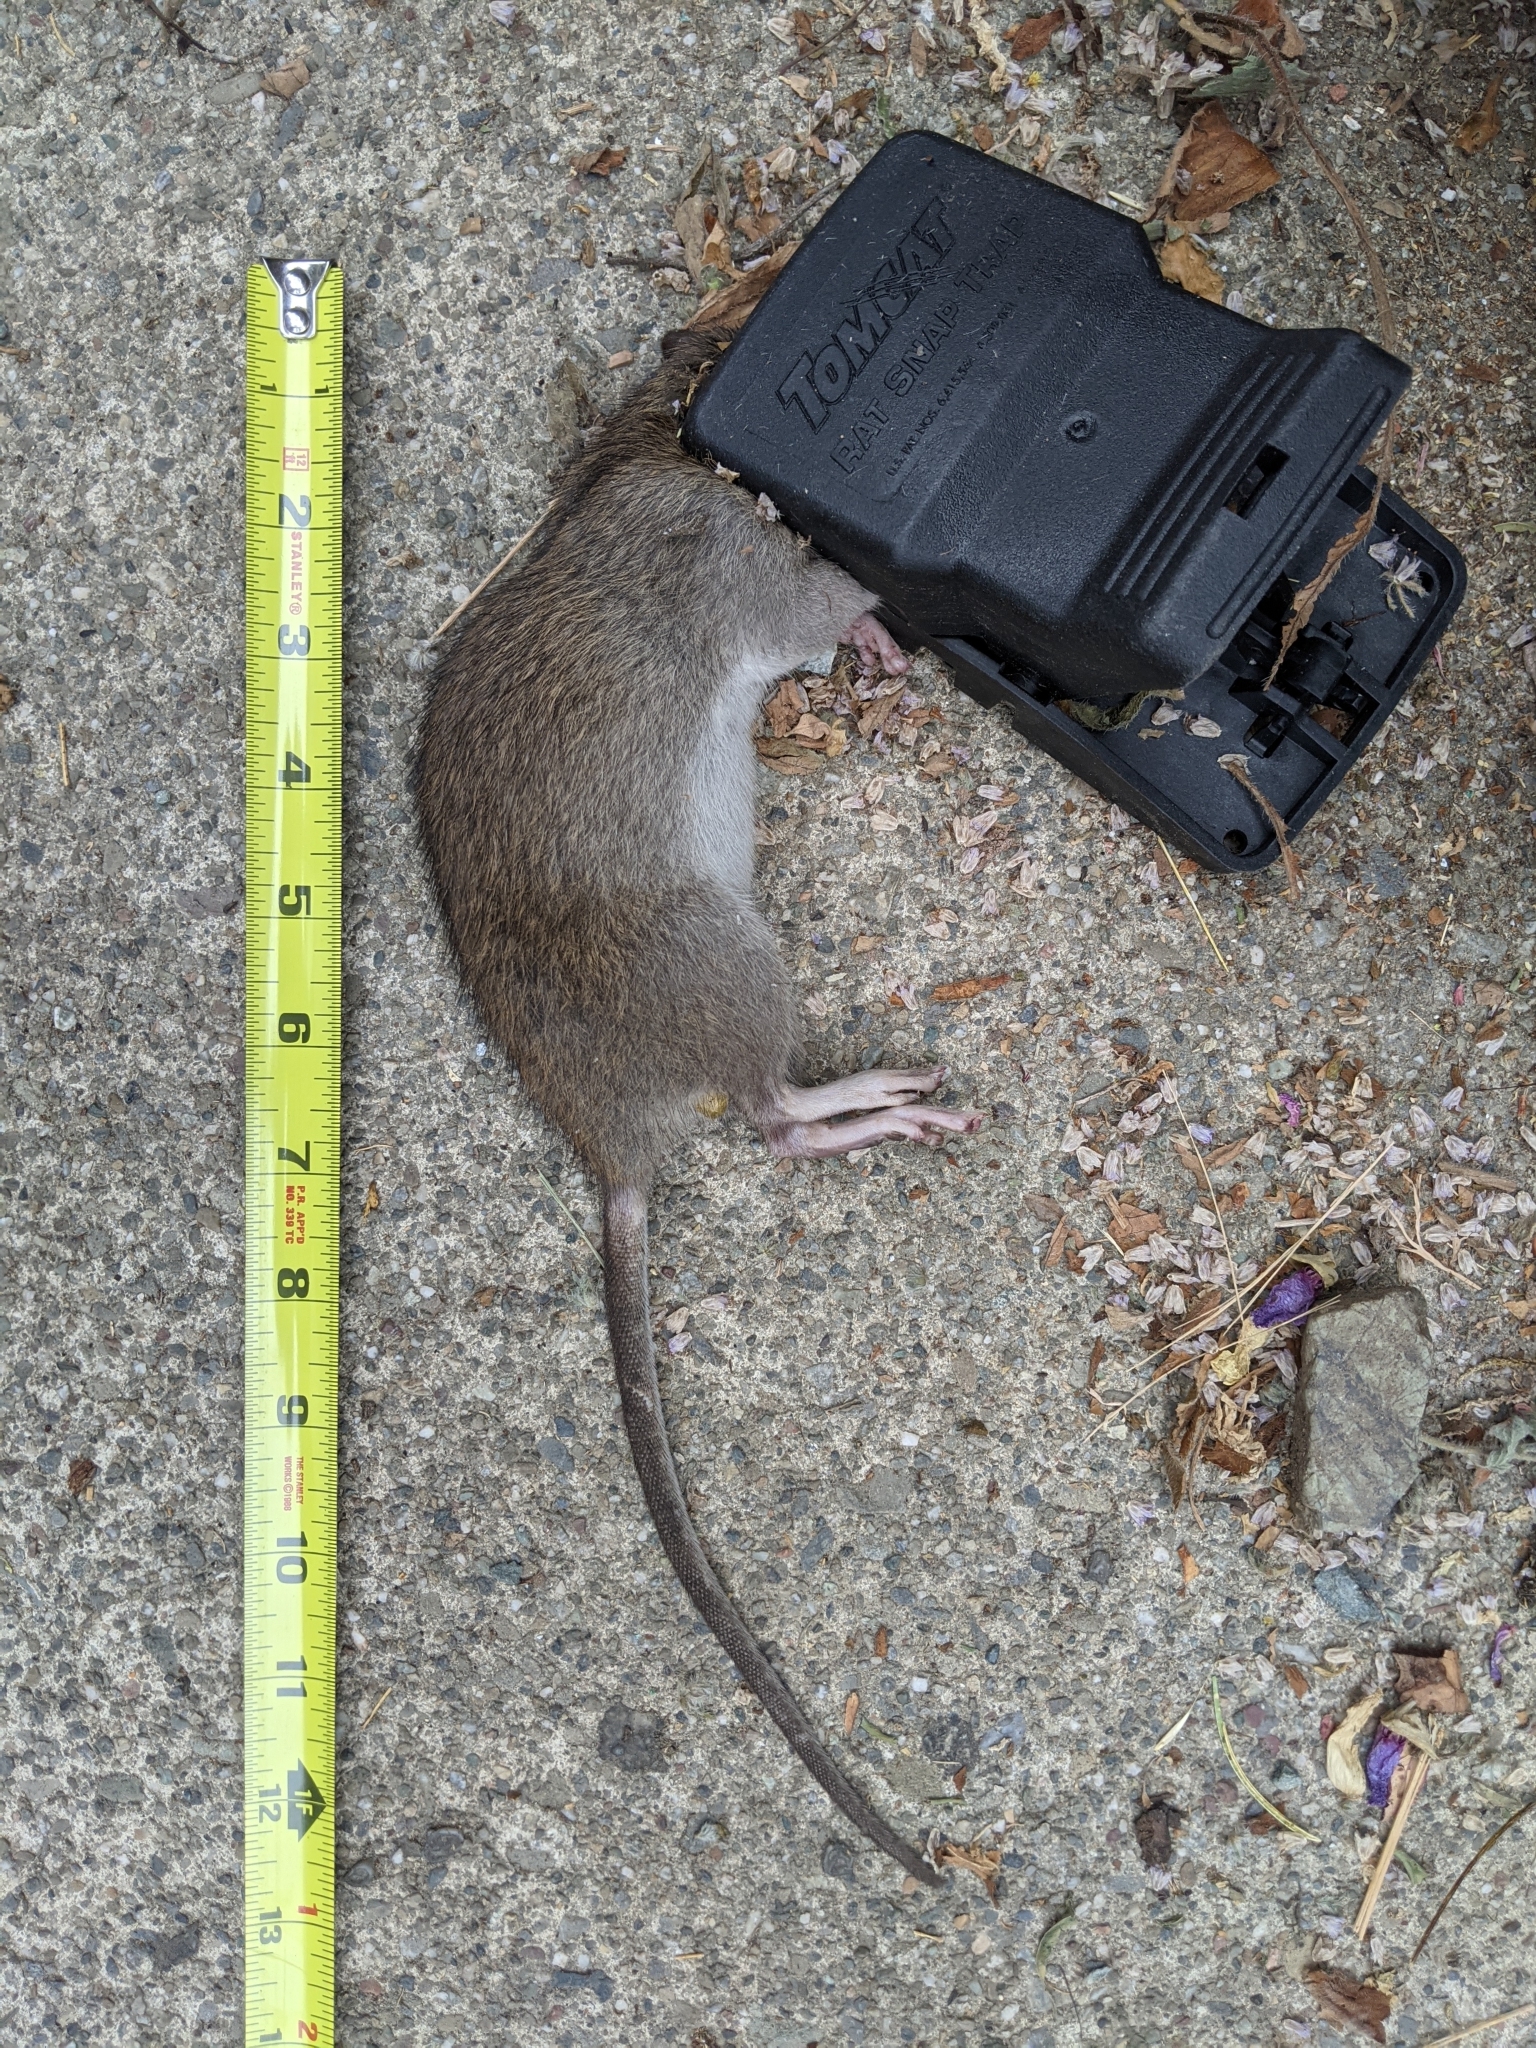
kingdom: Animalia
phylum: Chordata
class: Mammalia
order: Rodentia
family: Muridae
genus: Rattus
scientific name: Rattus norvegicus
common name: Brown rat
